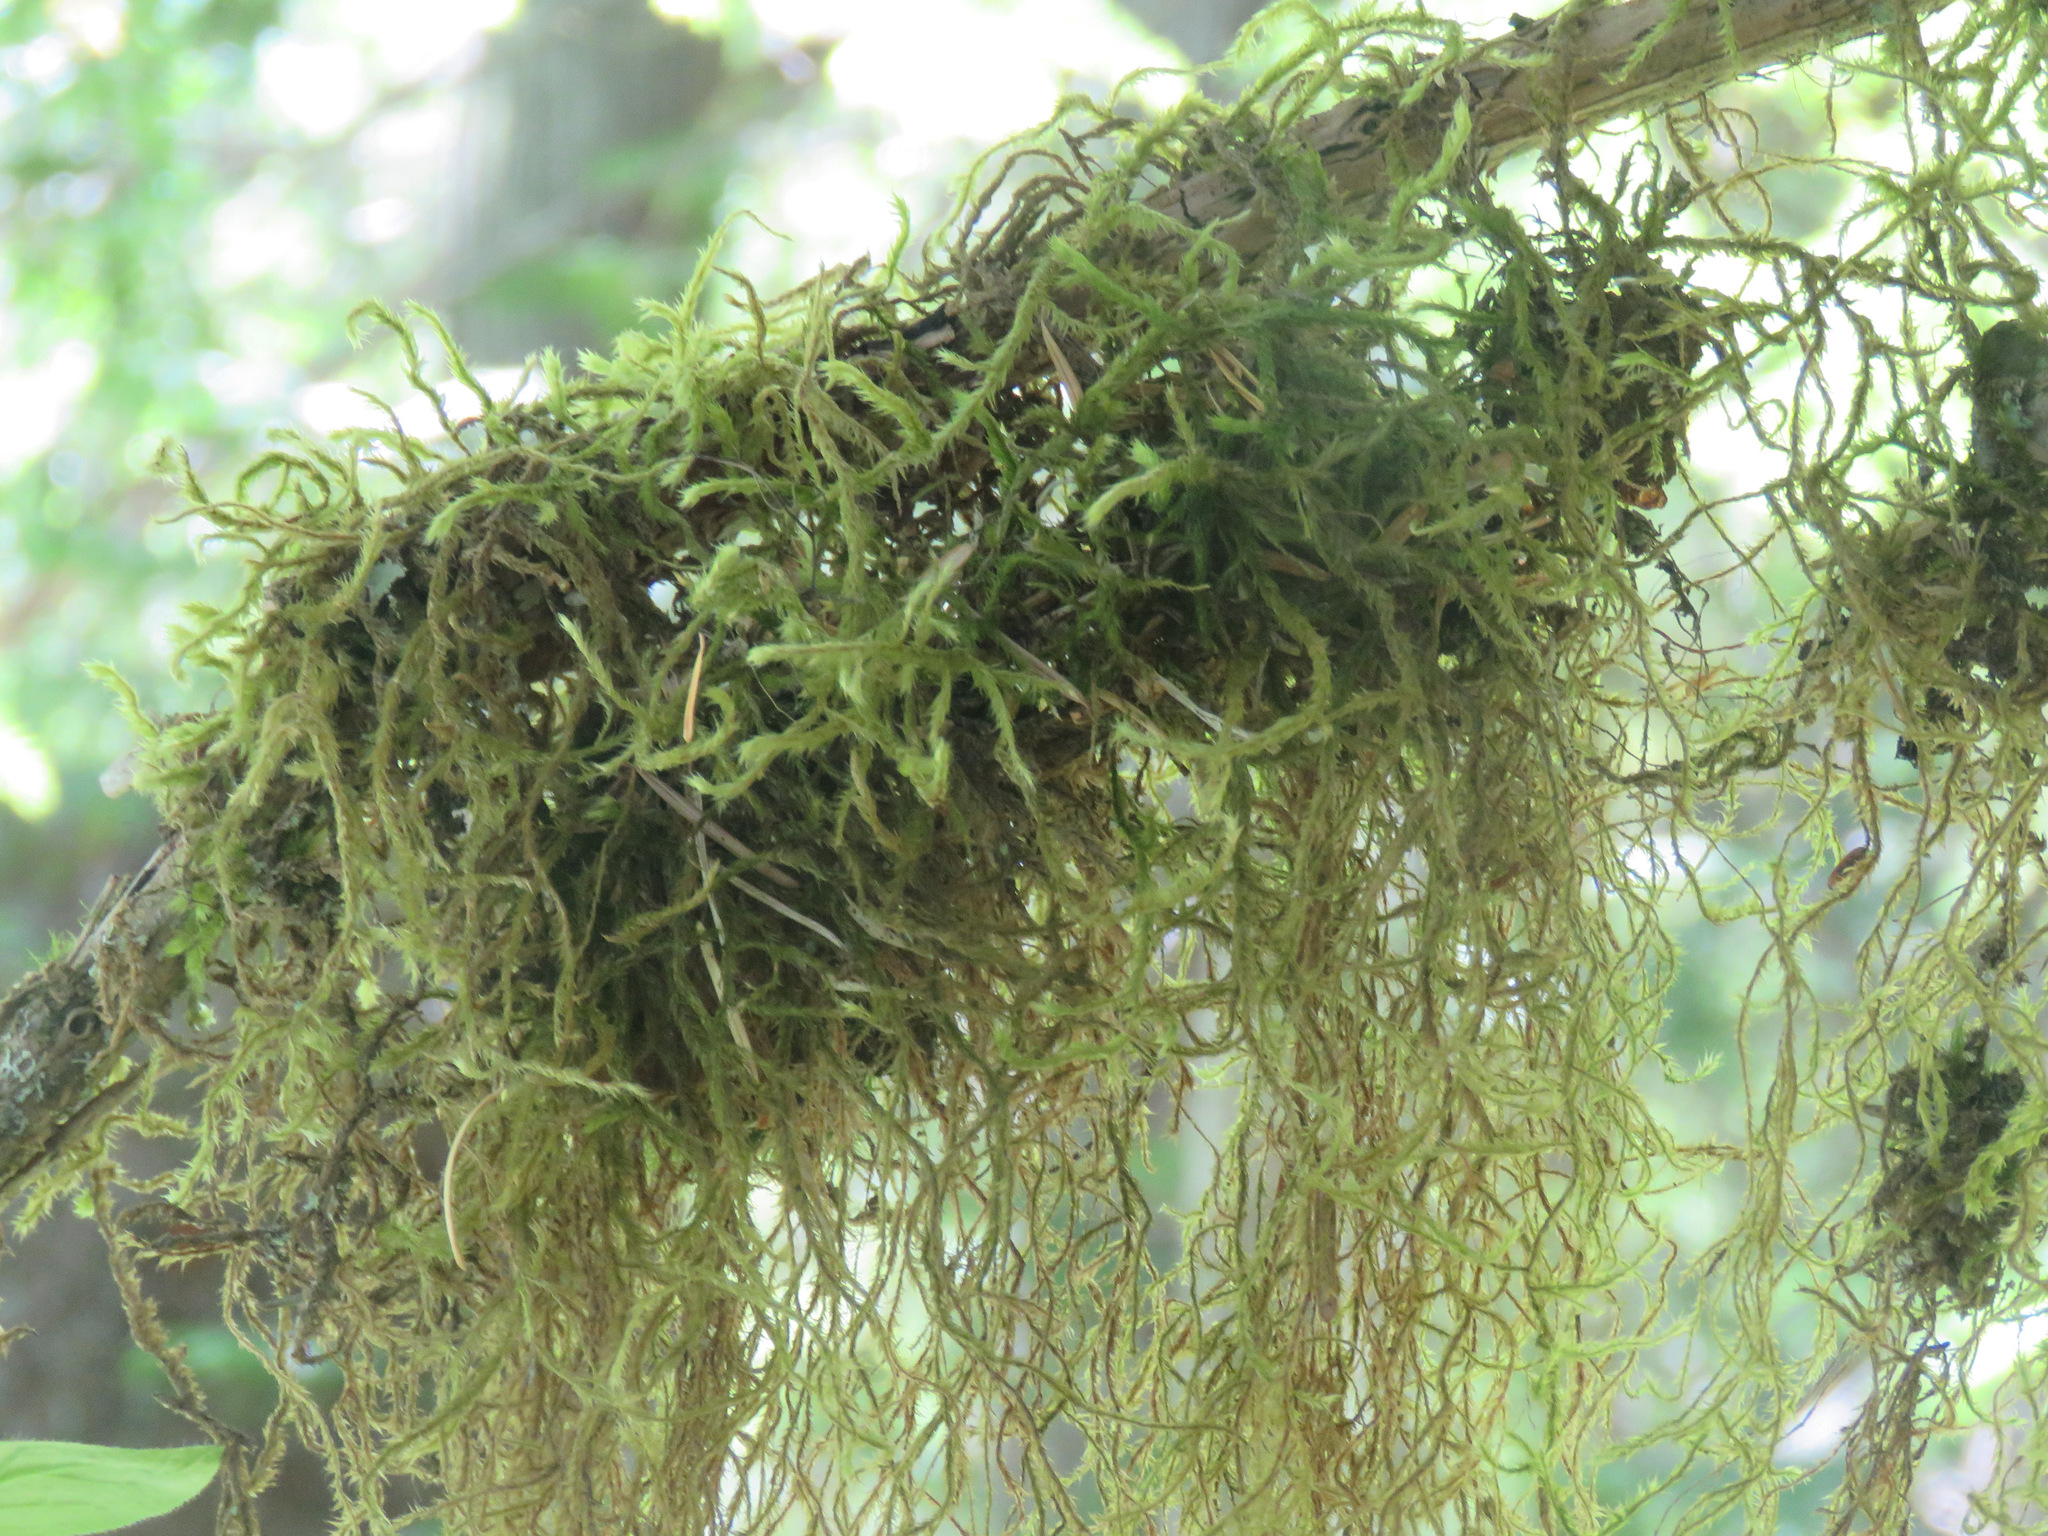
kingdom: Plantae
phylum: Bryophyta
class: Bryopsida
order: Hypnales
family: Antitrichiaceae
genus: Antitrichia
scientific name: Antitrichia curtipendula
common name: Pendulous wing-moss
